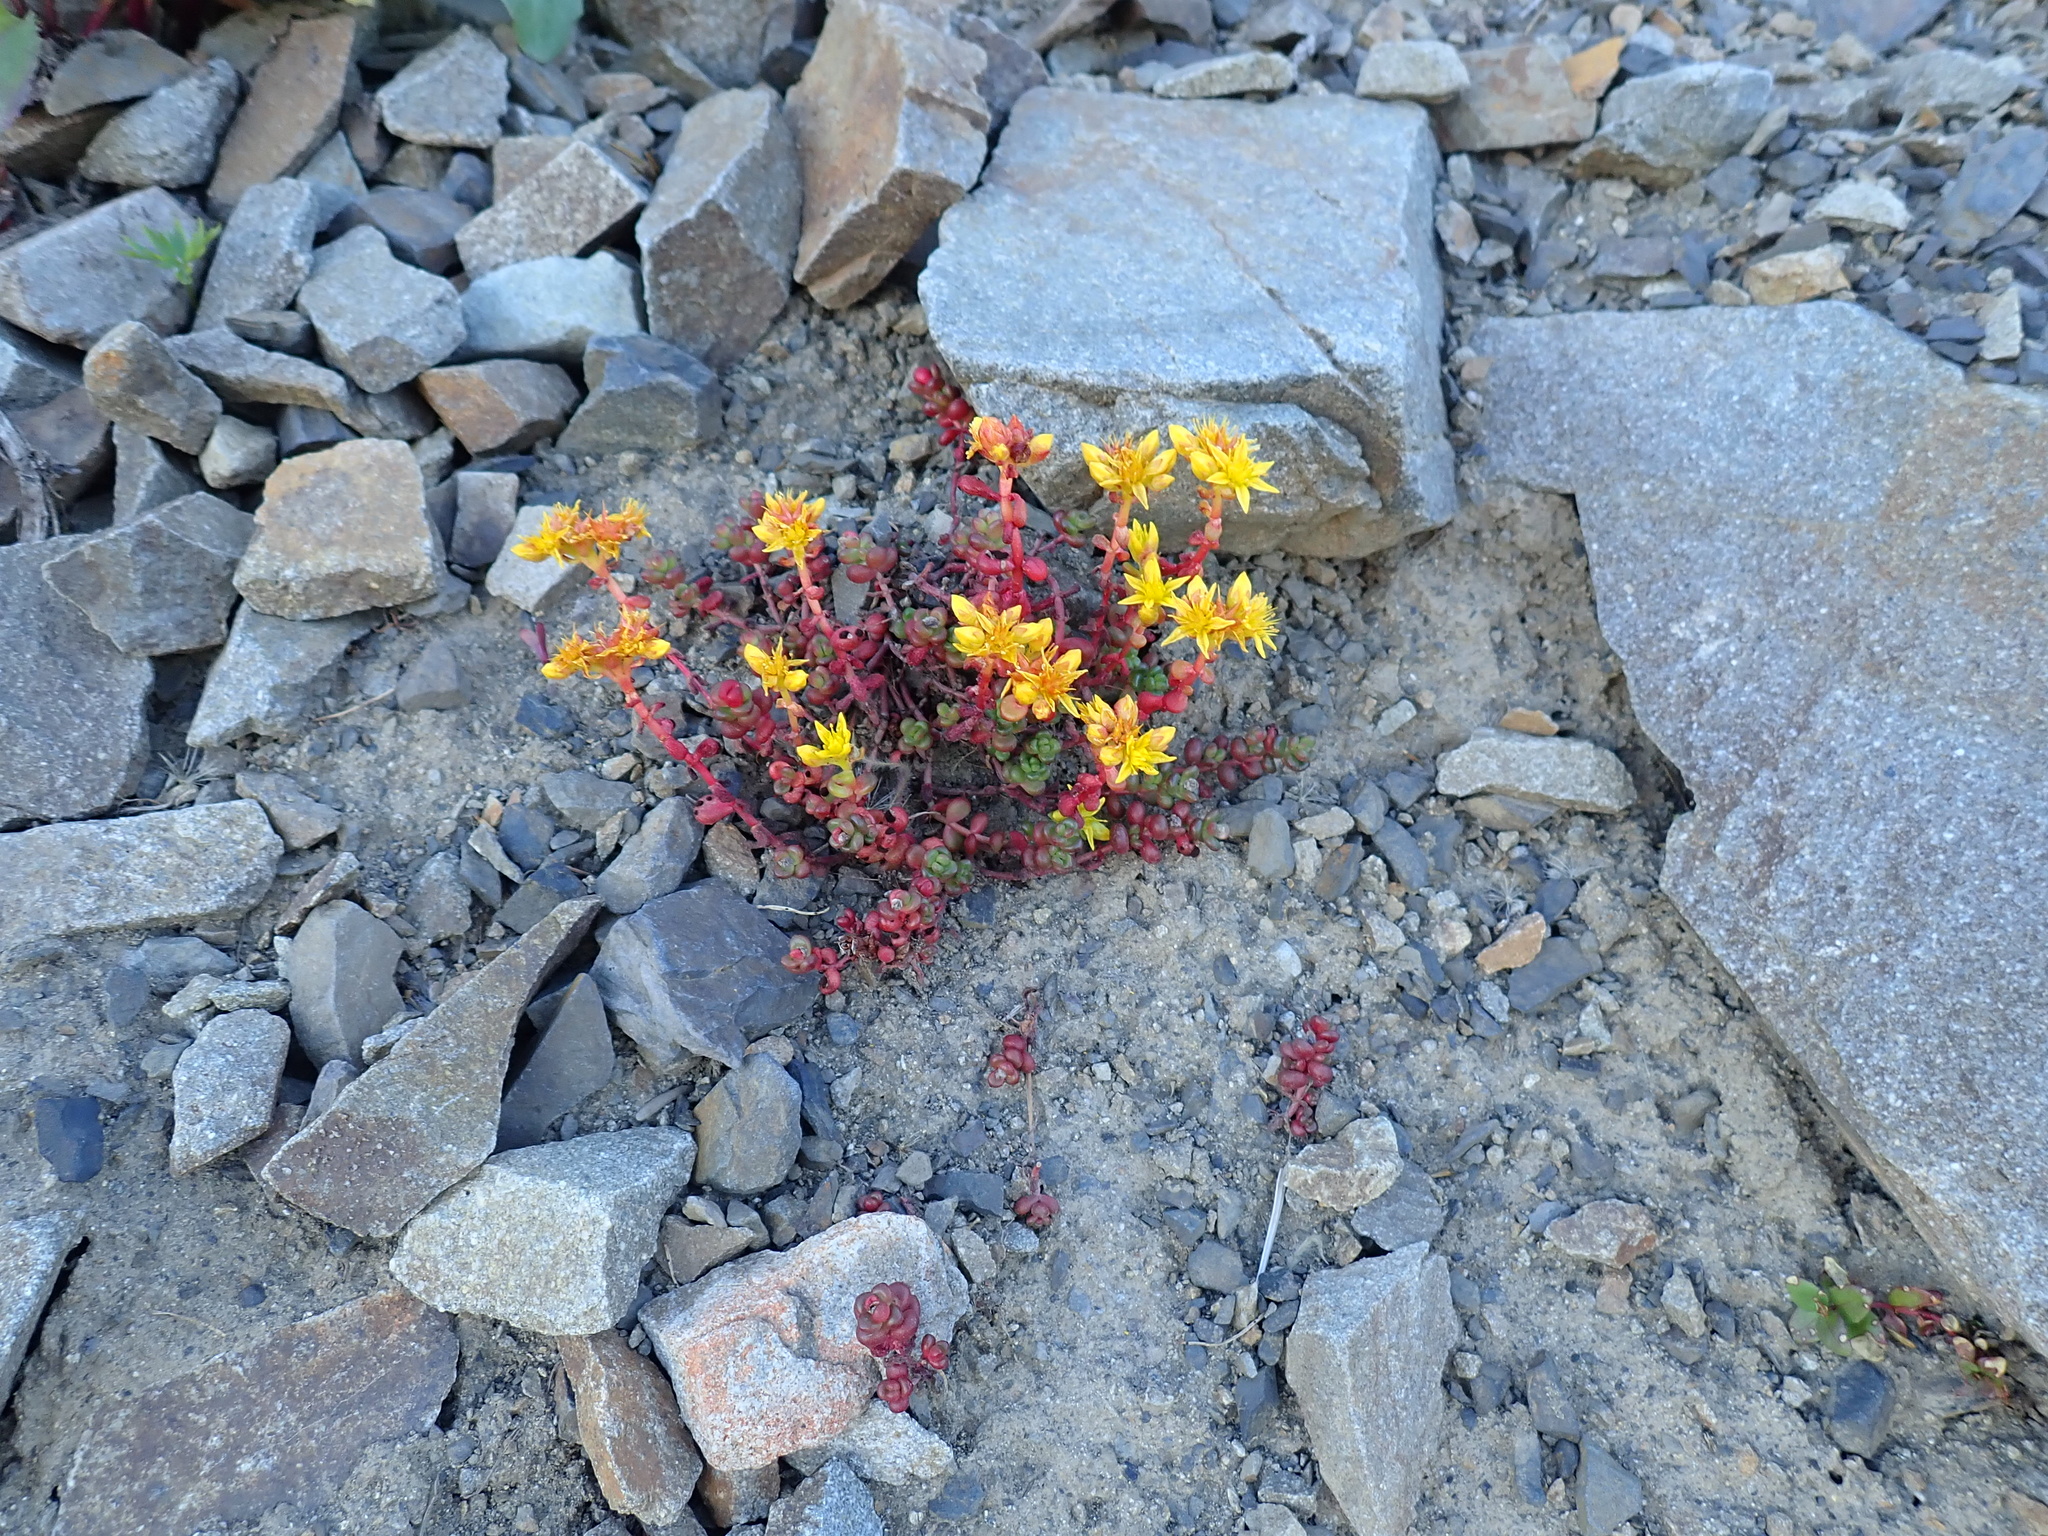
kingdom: Plantae
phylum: Tracheophyta
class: Magnoliopsida
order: Saxifragales
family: Crassulaceae
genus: Sedum
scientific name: Sedum divergens
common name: Cascade stonecrop
